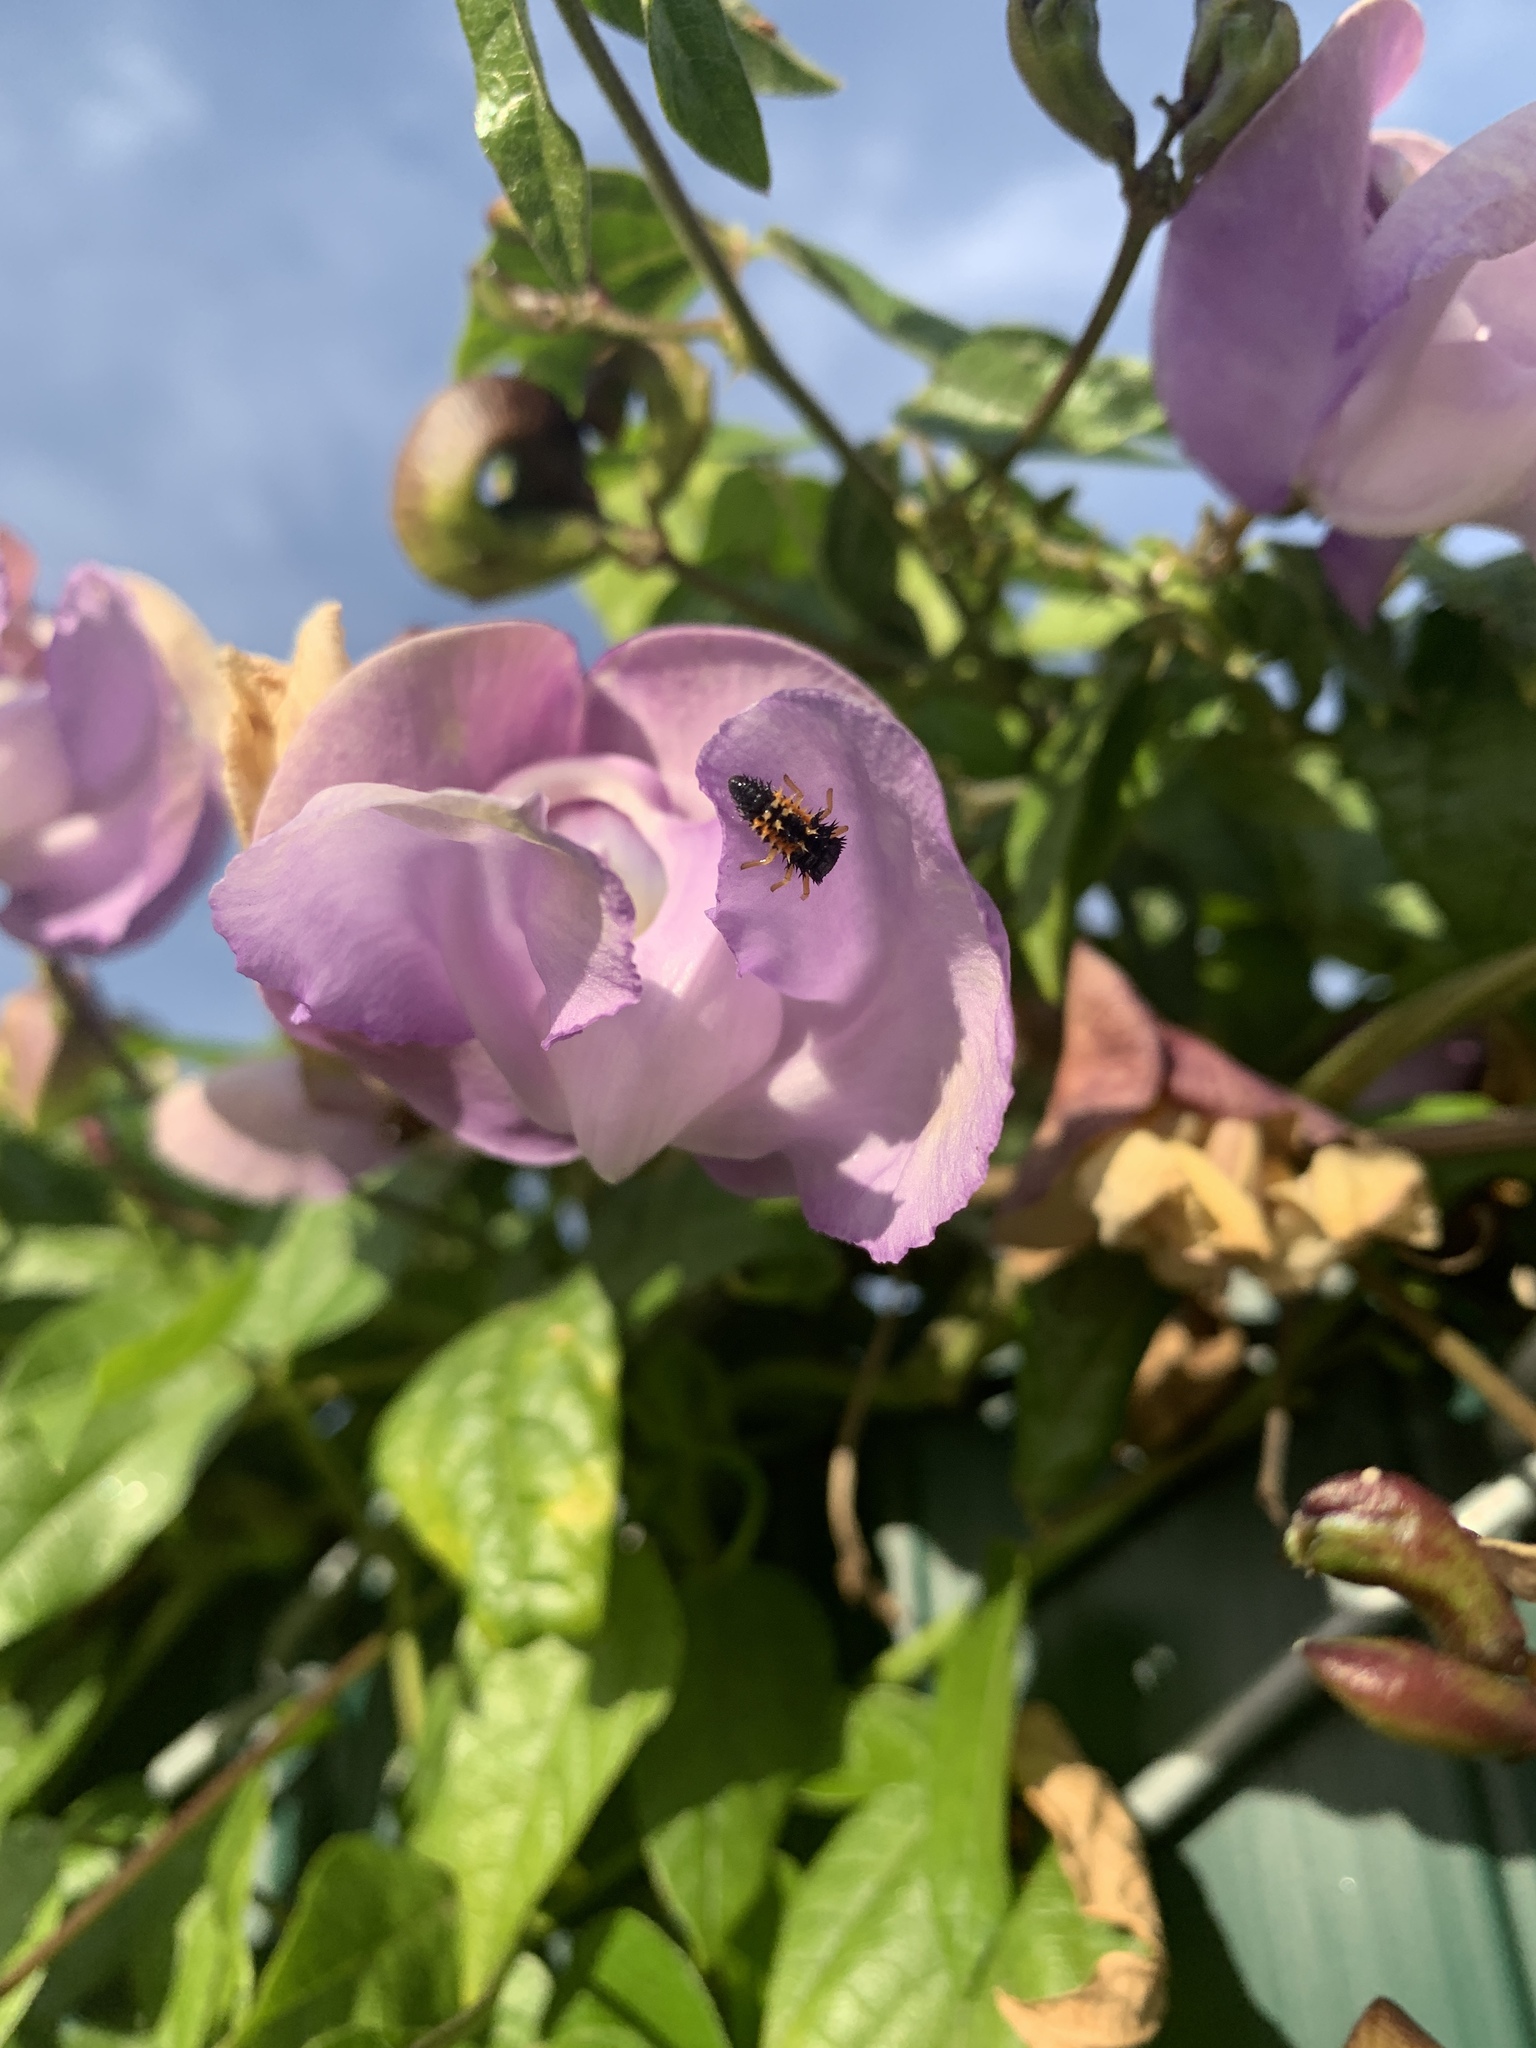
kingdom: Animalia
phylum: Arthropoda
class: Insecta
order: Coleoptera
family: Coccinellidae
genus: Harmonia
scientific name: Harmonia axyridis
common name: Harlequin ladybird
